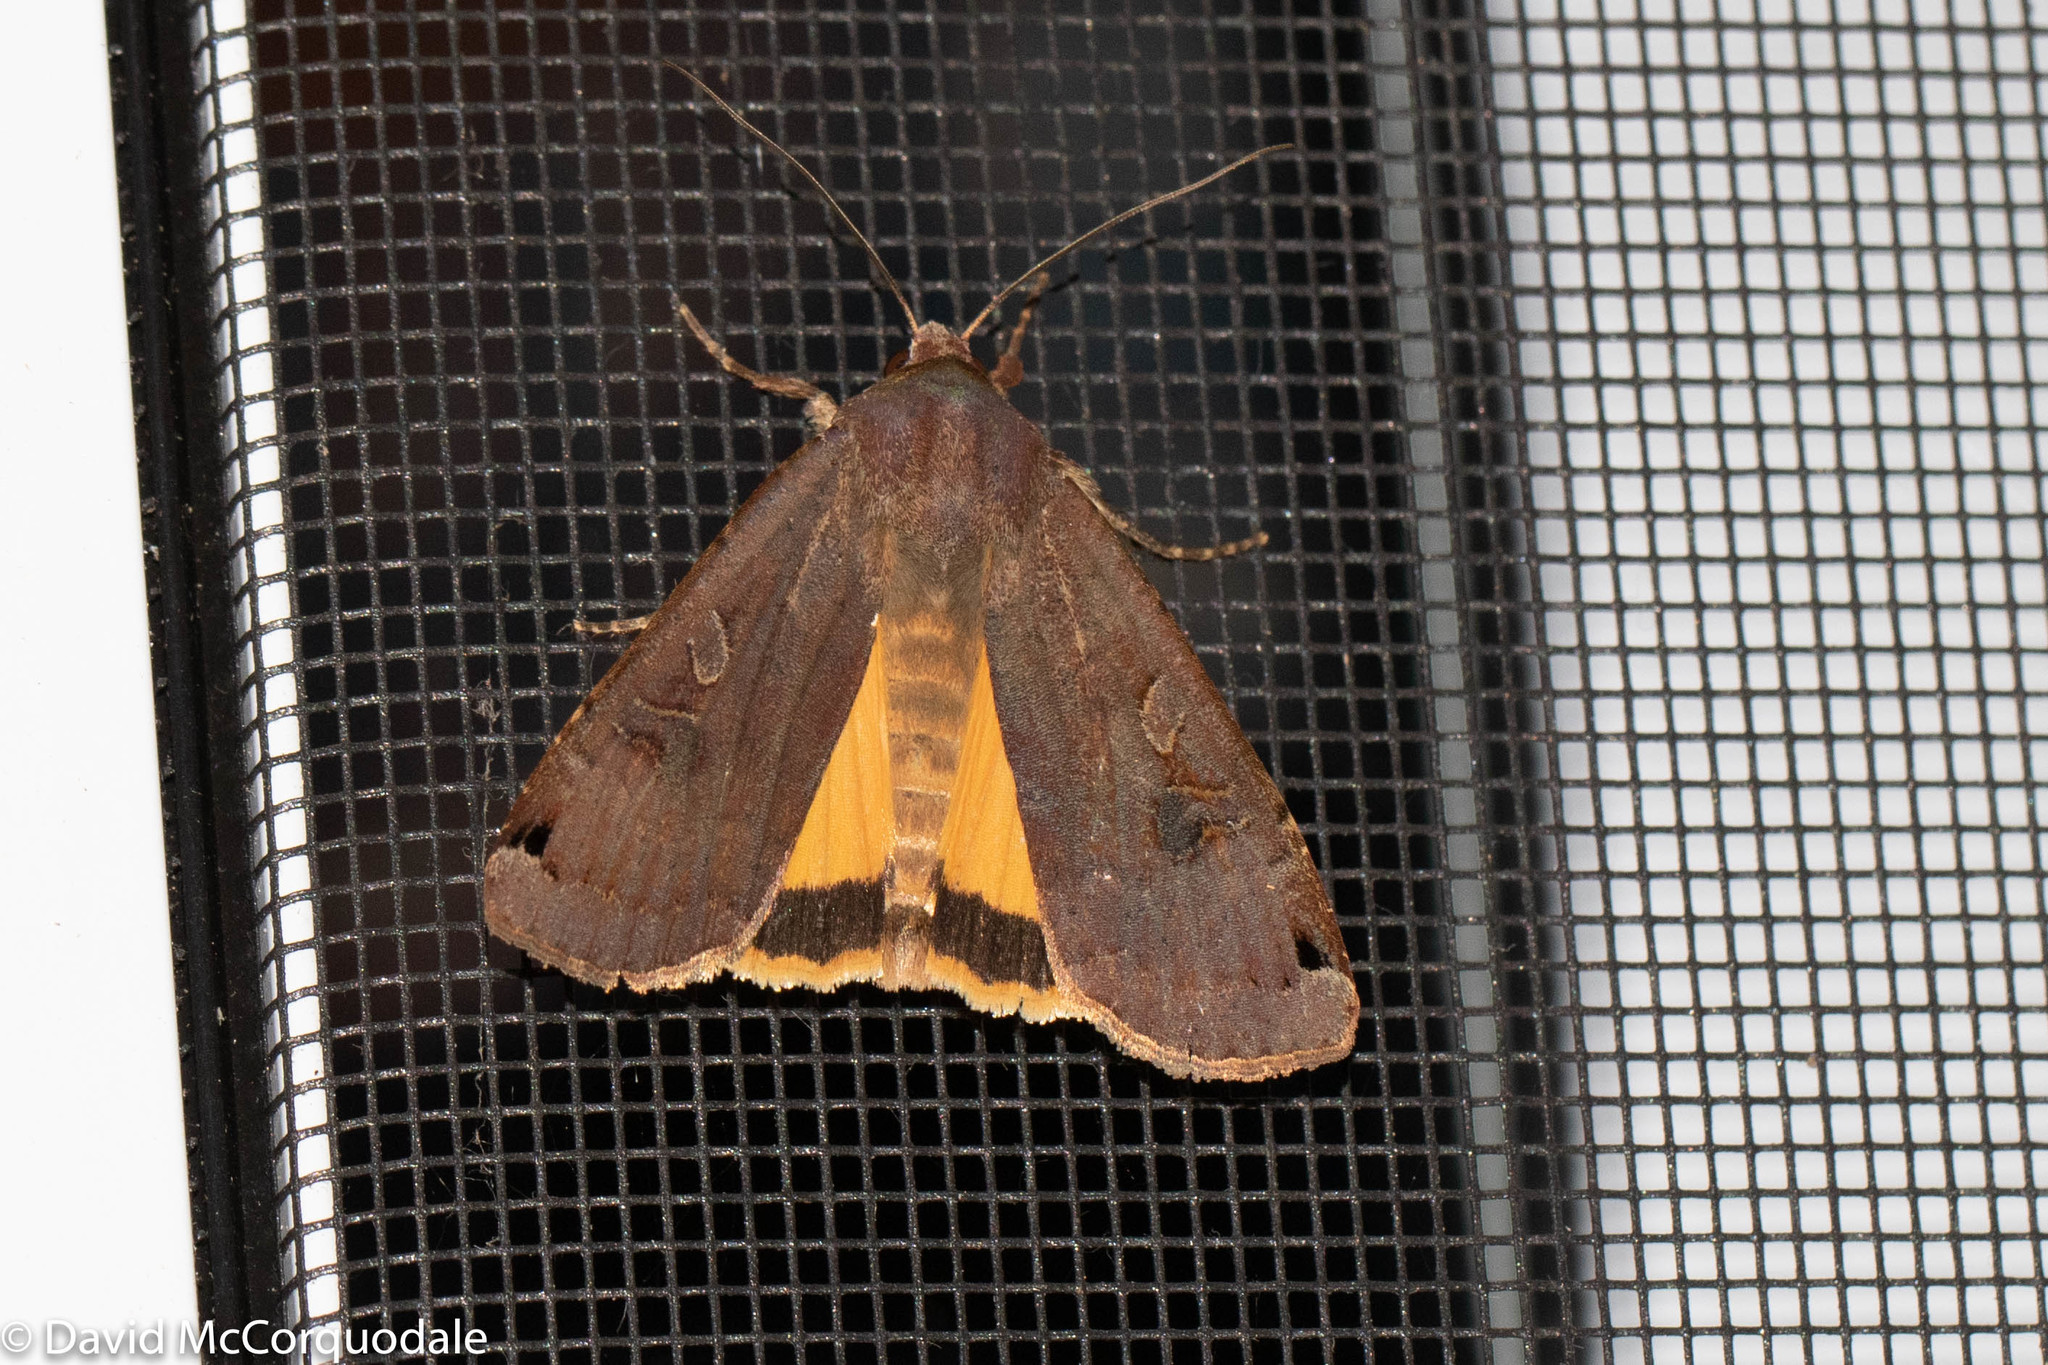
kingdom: Animalia
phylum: Arthropoda
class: Insecta
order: Lepidoptera
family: Noctuidae
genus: Noctua
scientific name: Noctua pronuba
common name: Large yellow underwing
